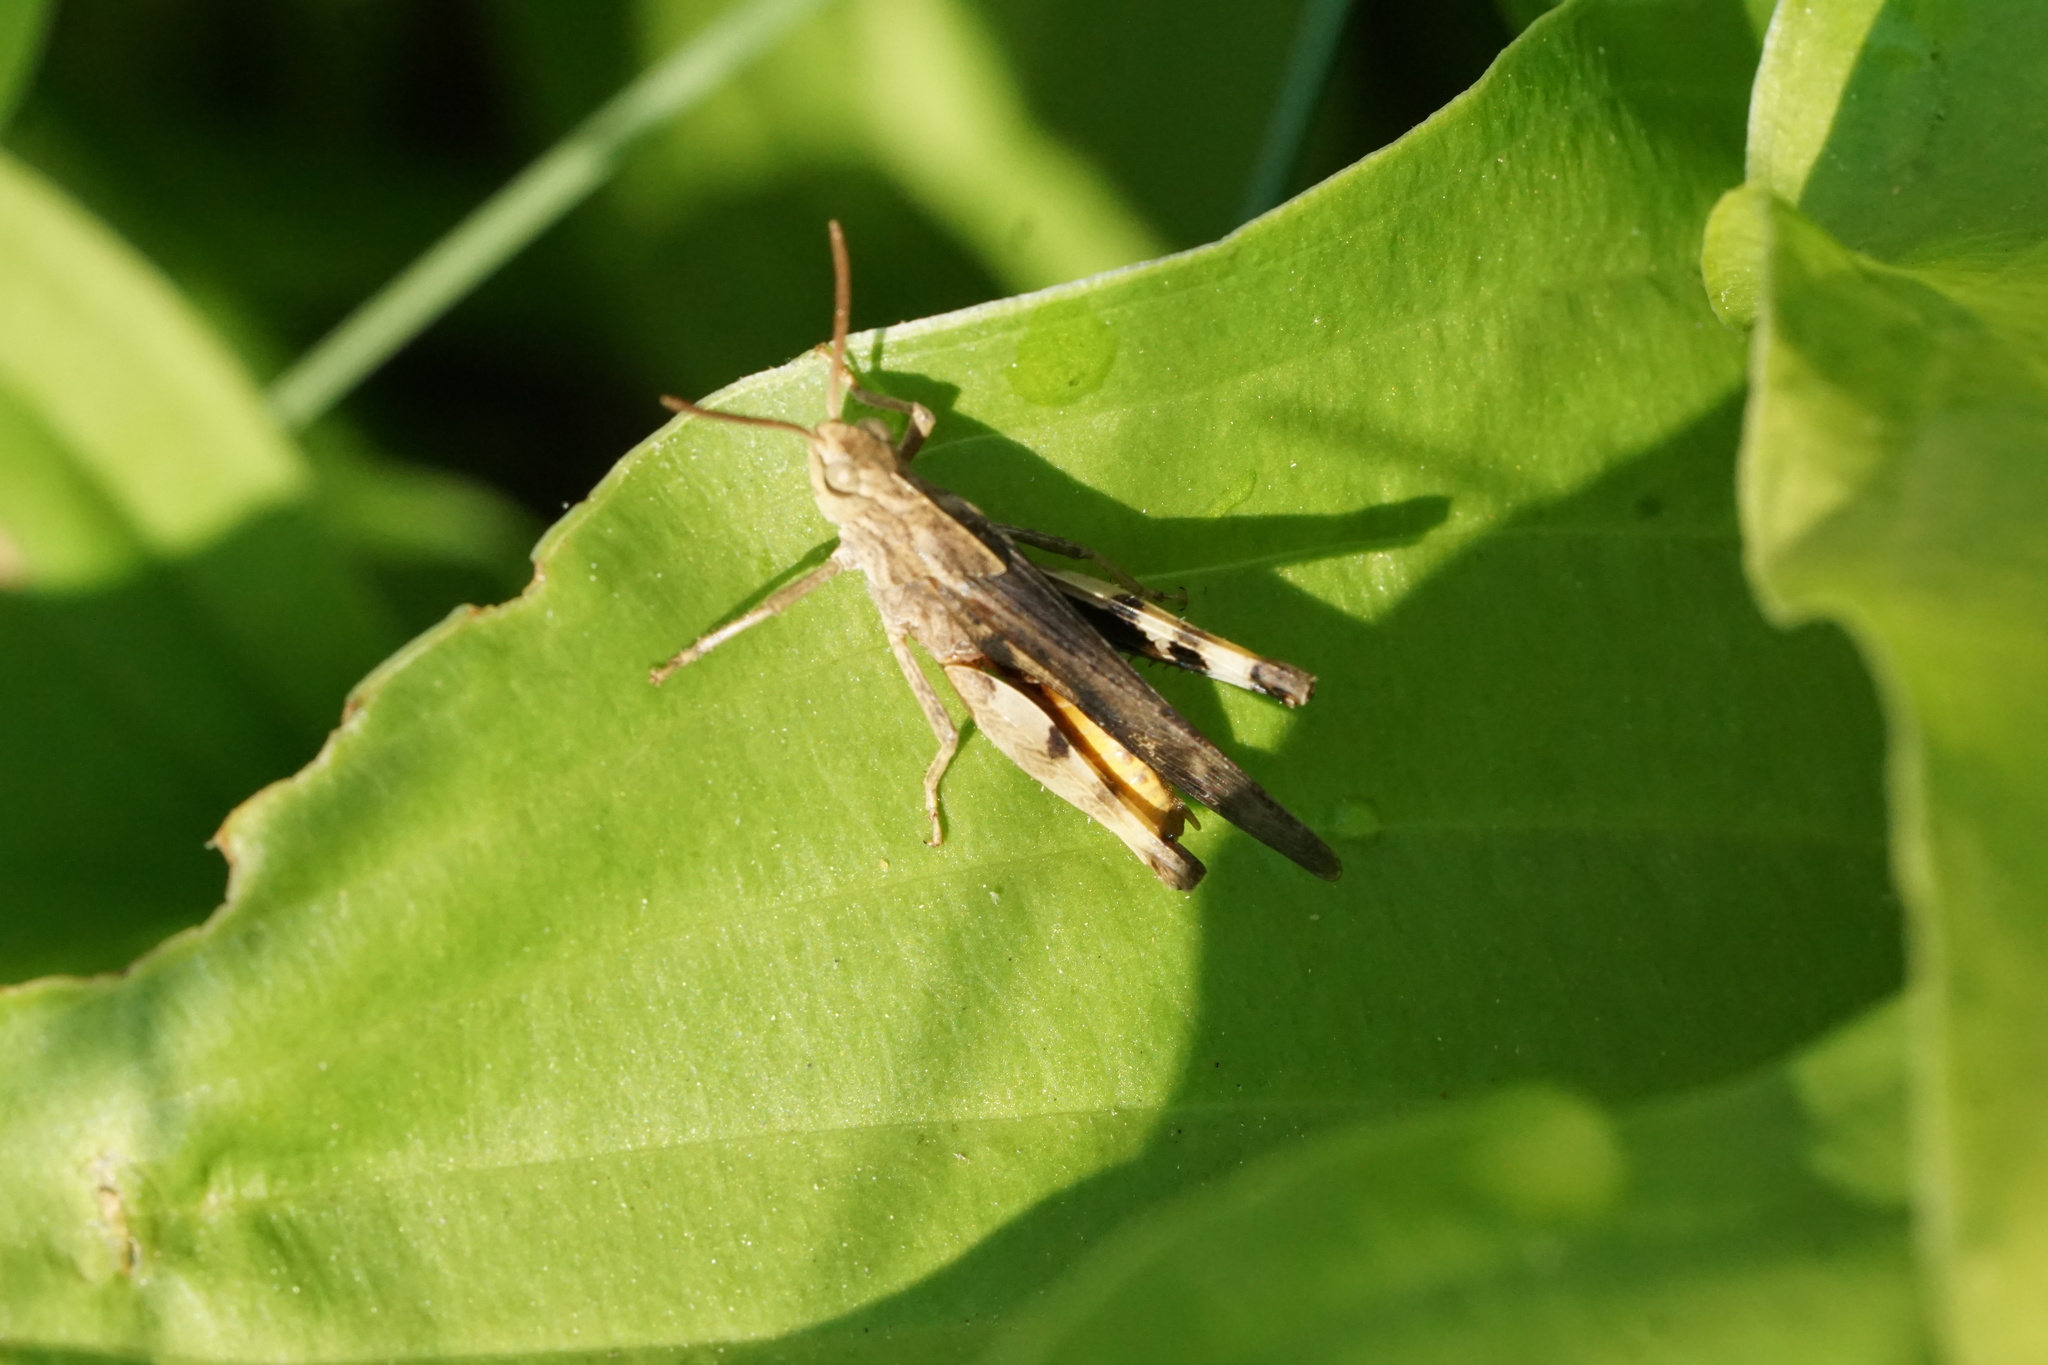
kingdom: Animalia
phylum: Arthropoda
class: Insecta
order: Orthoptera
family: Acrididae
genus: Chortophaga
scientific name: Chortophaga viridifasciata
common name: Green-striped grasshopper
